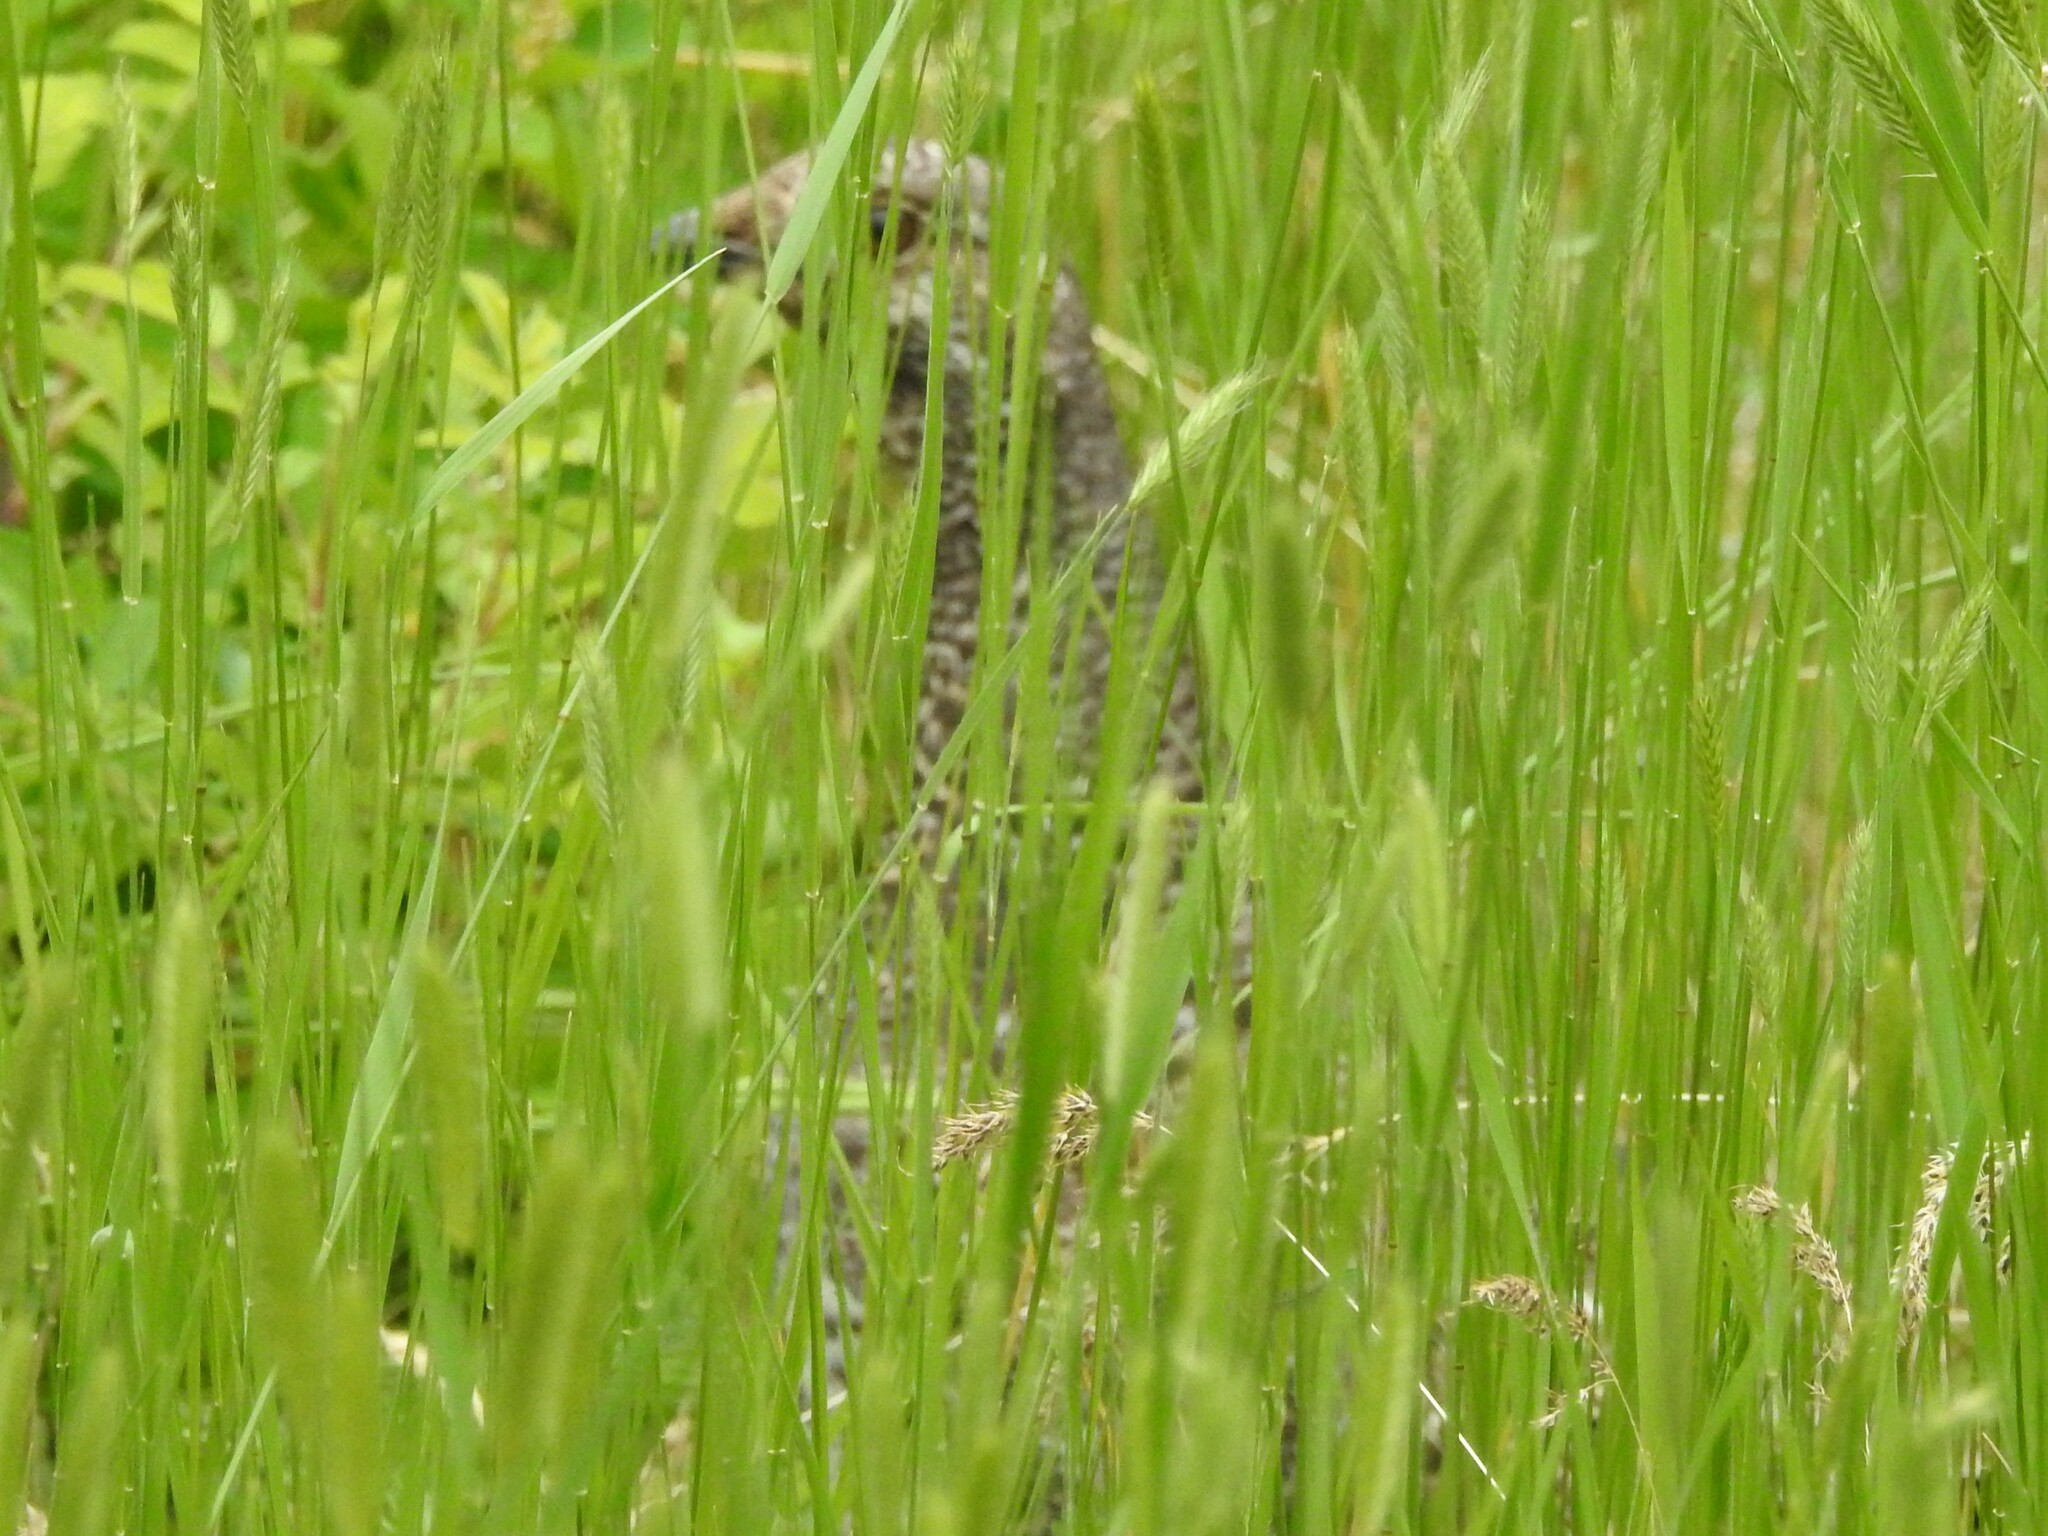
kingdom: Animalia
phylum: Chordata
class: Aves
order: Galliformes
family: Phasianidae
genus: Dendragapus
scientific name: Dendragapus obscurus
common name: Dusky grouse
